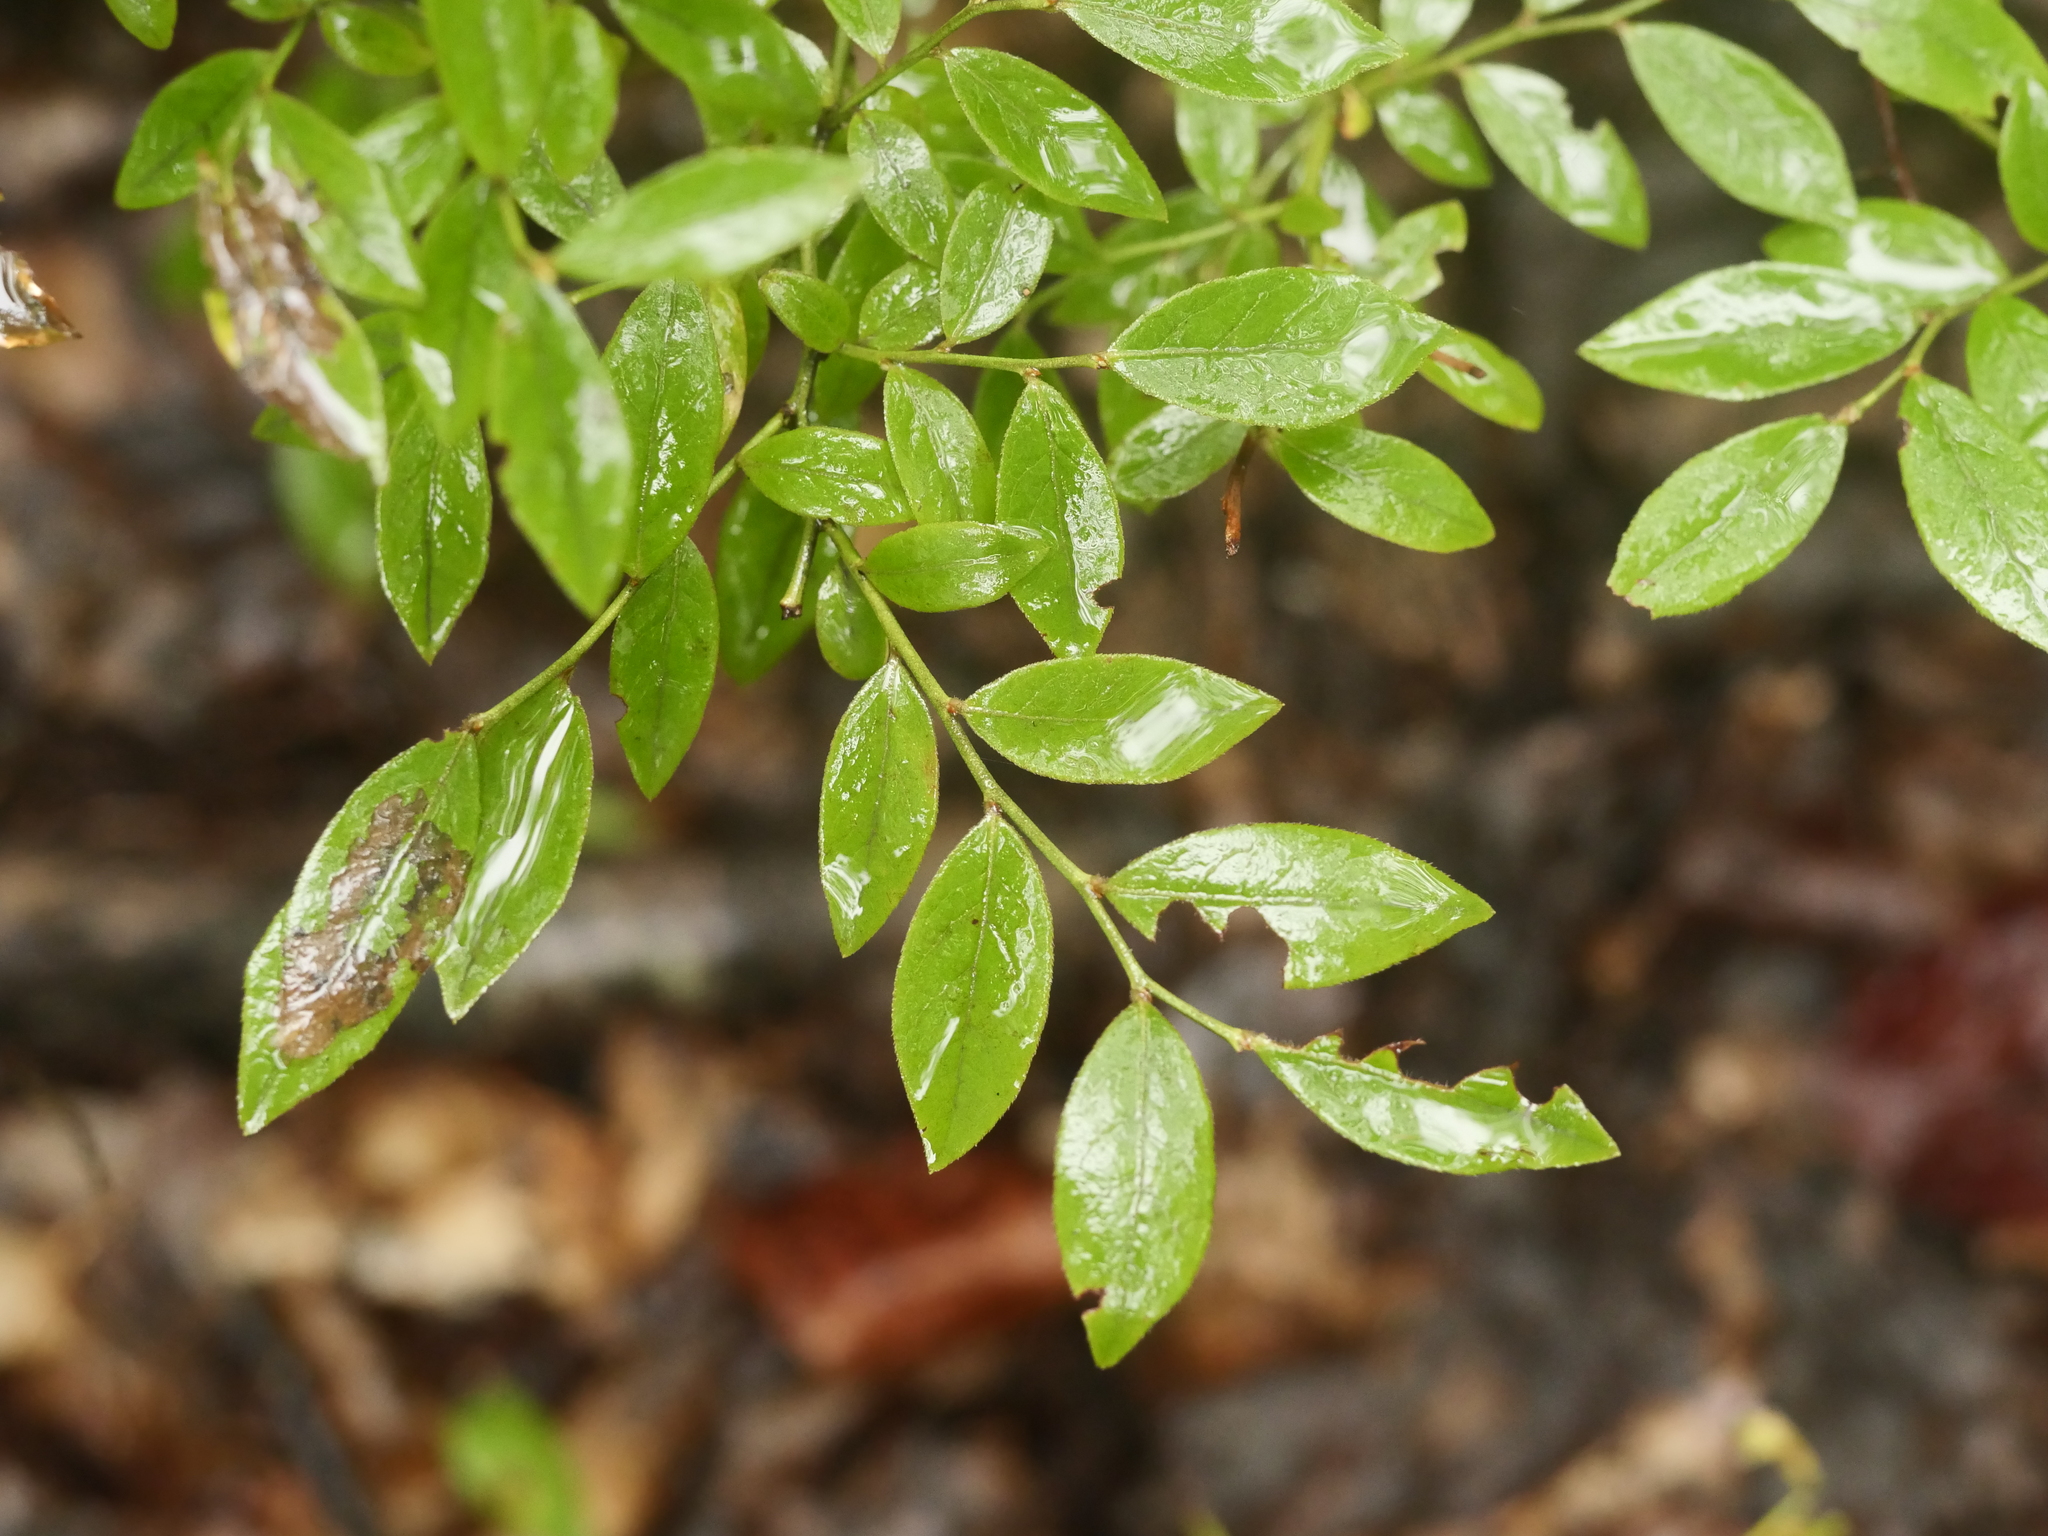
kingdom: Plantae
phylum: Tracheophyta
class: Magnoliopsida
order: Ericales
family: Ericaceae
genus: Vaccinium
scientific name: Vaccinium angustifolium
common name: Early lowbush blueberry
